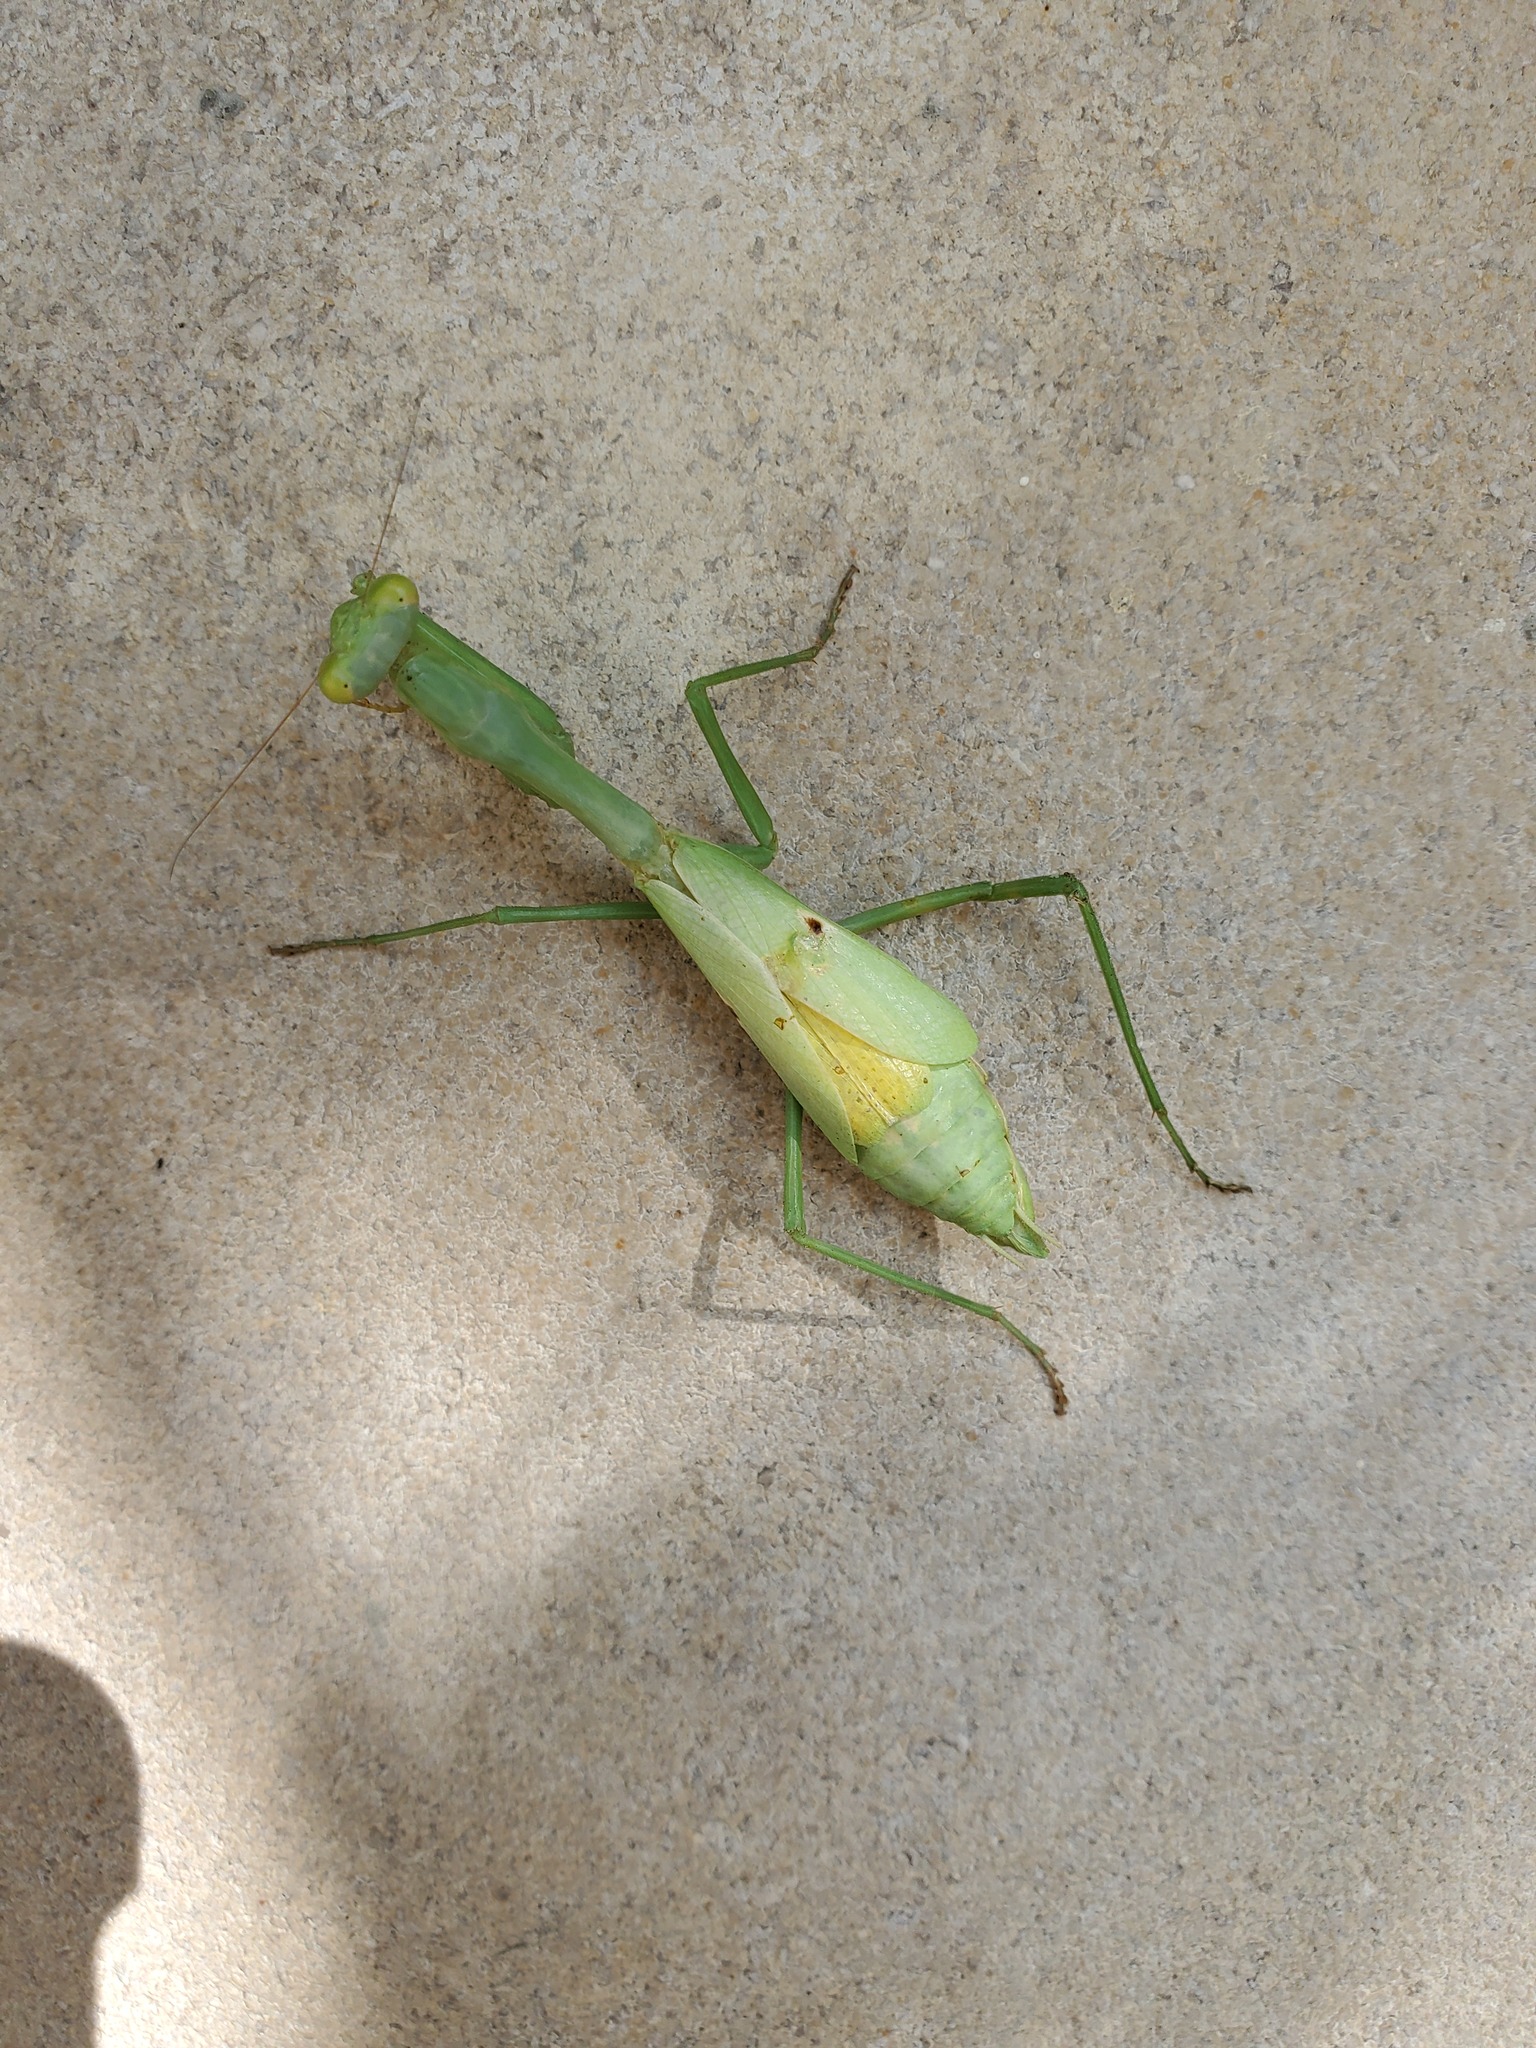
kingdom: Animalia
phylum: Arthropoda
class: Insecta
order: Mantodea
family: Mantidae
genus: Stagmomantis
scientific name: Stagmomantis carolina
